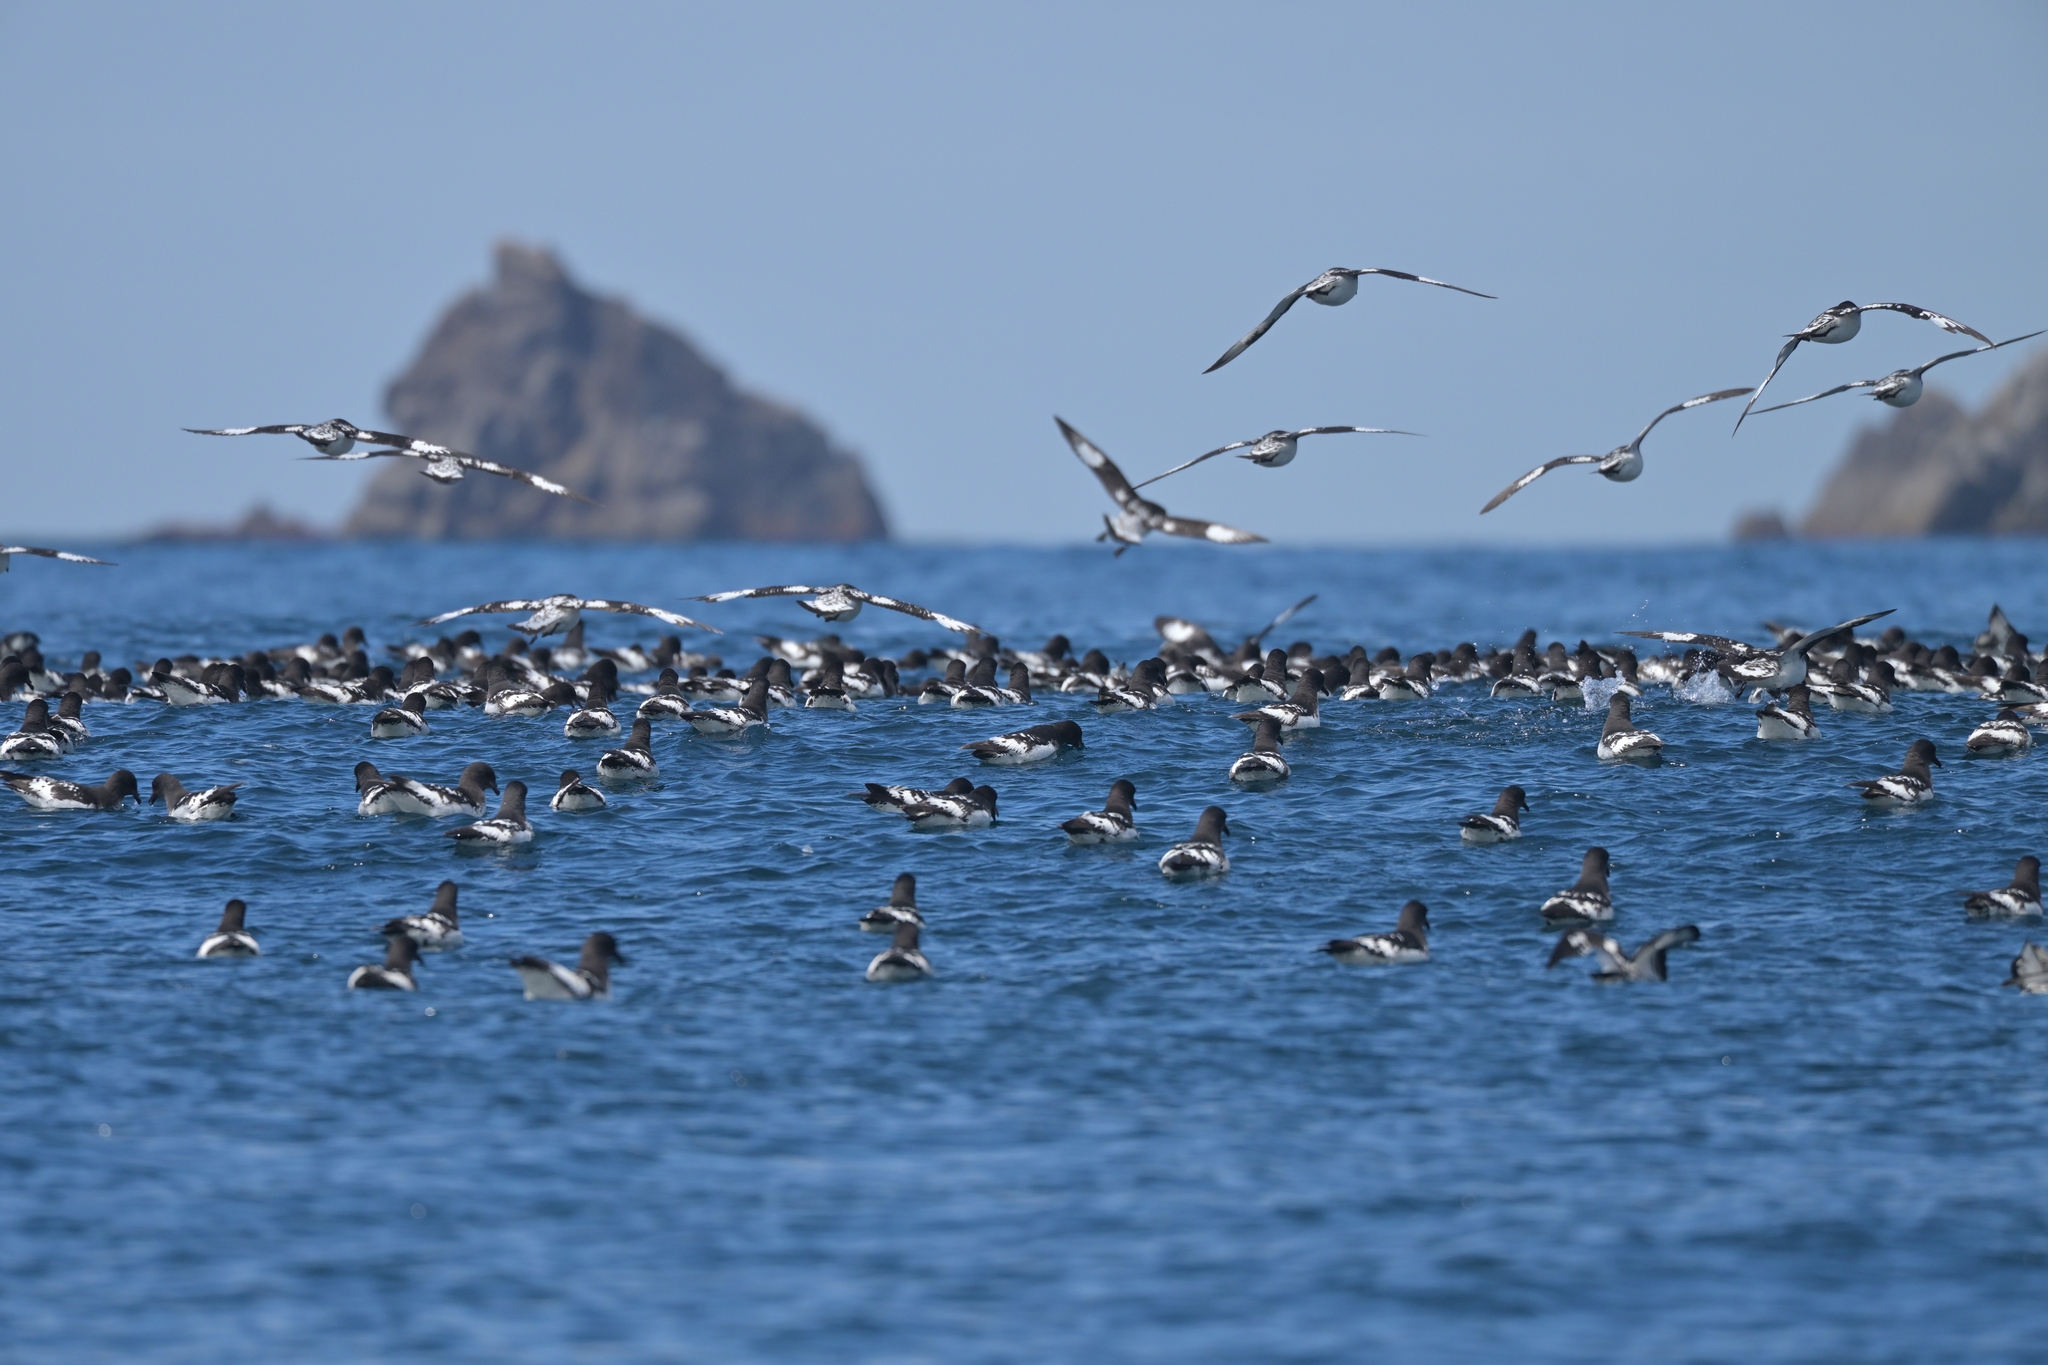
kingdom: Animalia
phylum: Chordata
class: Aves
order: Procellariiformes
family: Procellariidae
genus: Daption
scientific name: Daption capense
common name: Cape petrel
